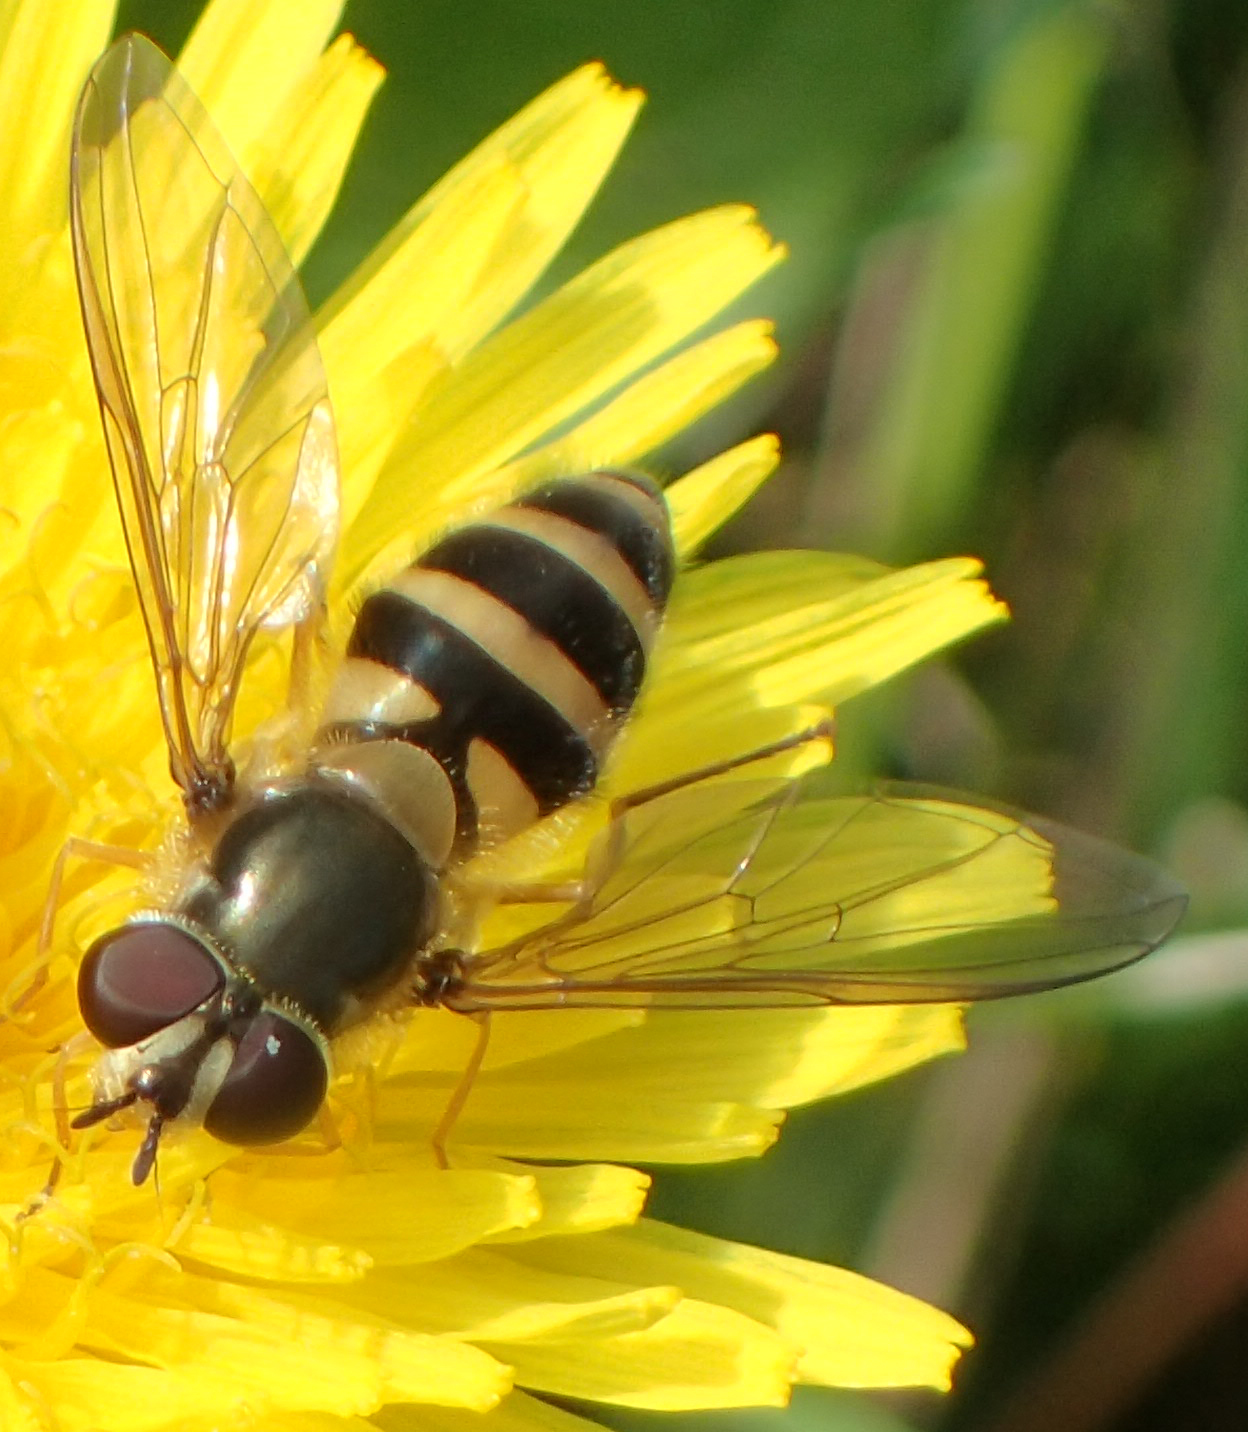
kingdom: Animalia
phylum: Arthropoda
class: Insecta
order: Diptera
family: Syrphidae
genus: Epistrophe
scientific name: Epistrophe grossulariae
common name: Black-horned smoothtail
